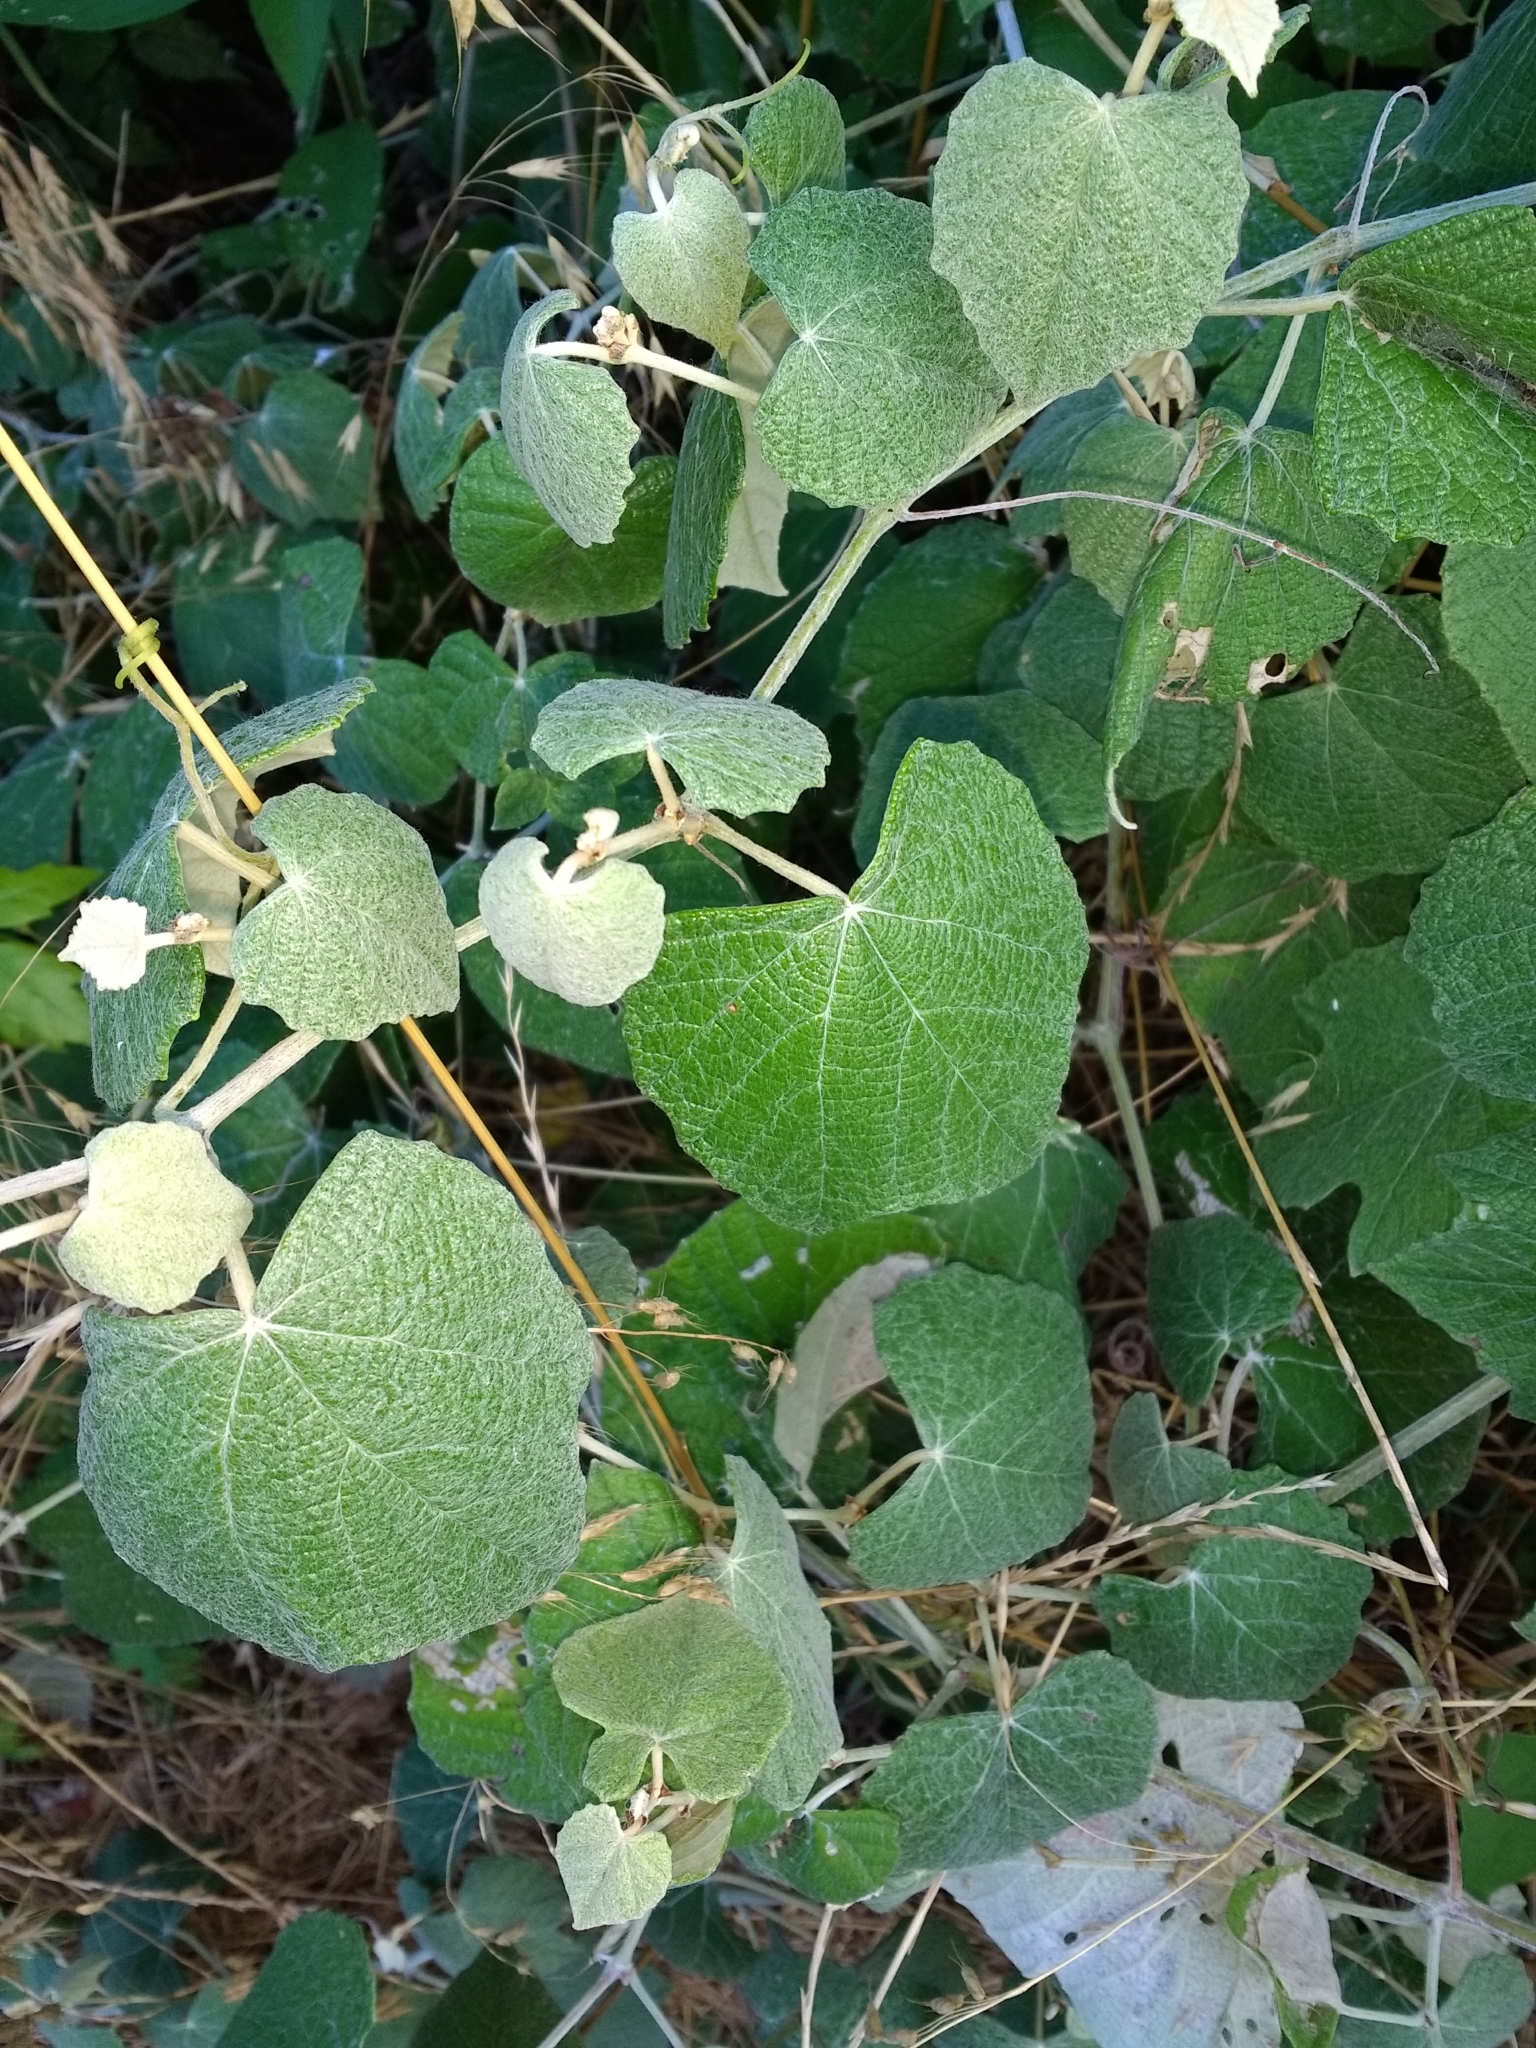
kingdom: Plantae
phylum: Tracheophyta
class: Magnoliopsida
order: Vitales
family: Vitaceae
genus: Vitis
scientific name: Vitis mustangensis
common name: Mustang grape
